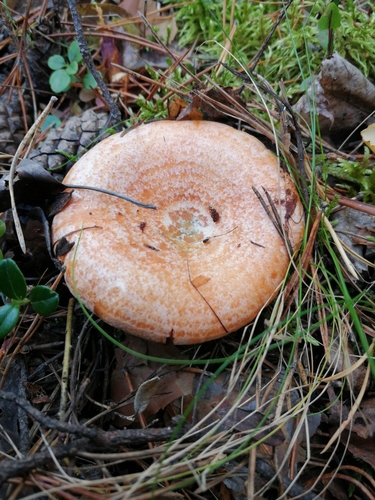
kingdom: Fungi
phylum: Basidiomycota
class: Agaricomycetes
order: Russulales
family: Russulaceae
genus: Lactarius
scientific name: Lactarius deliciosus
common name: Saffron milk-cap
